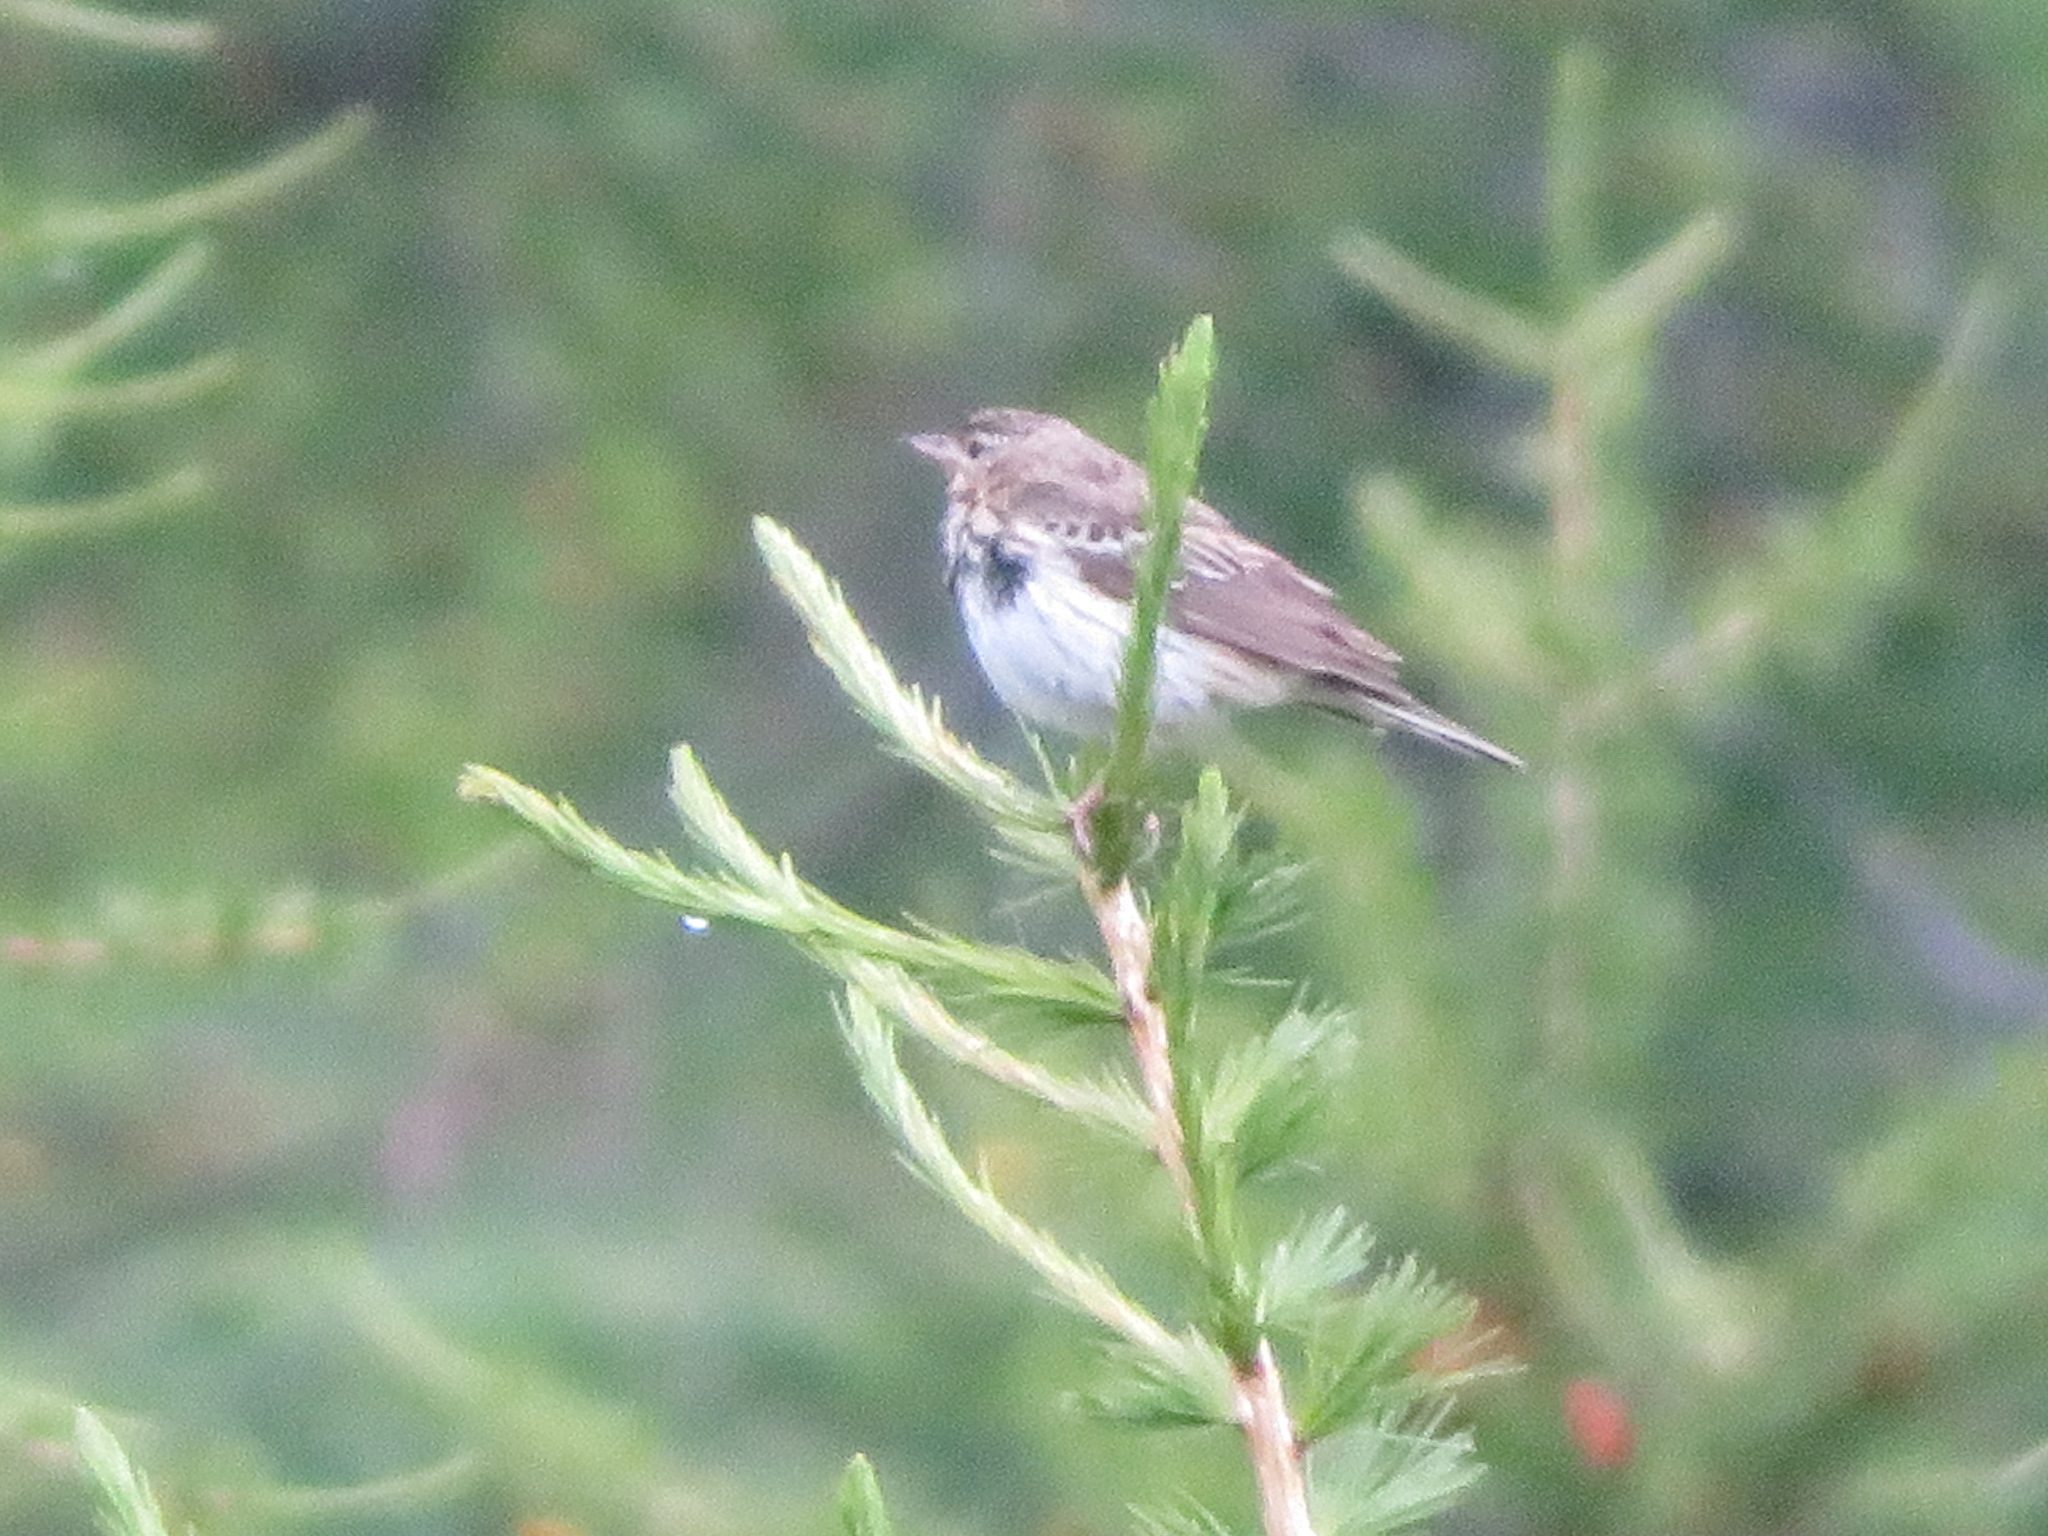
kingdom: Animalia
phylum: Chordata
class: Aves
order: Passeriformes
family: Motacillidae
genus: Anthus
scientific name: Anthus trivialis
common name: Tree pipit
